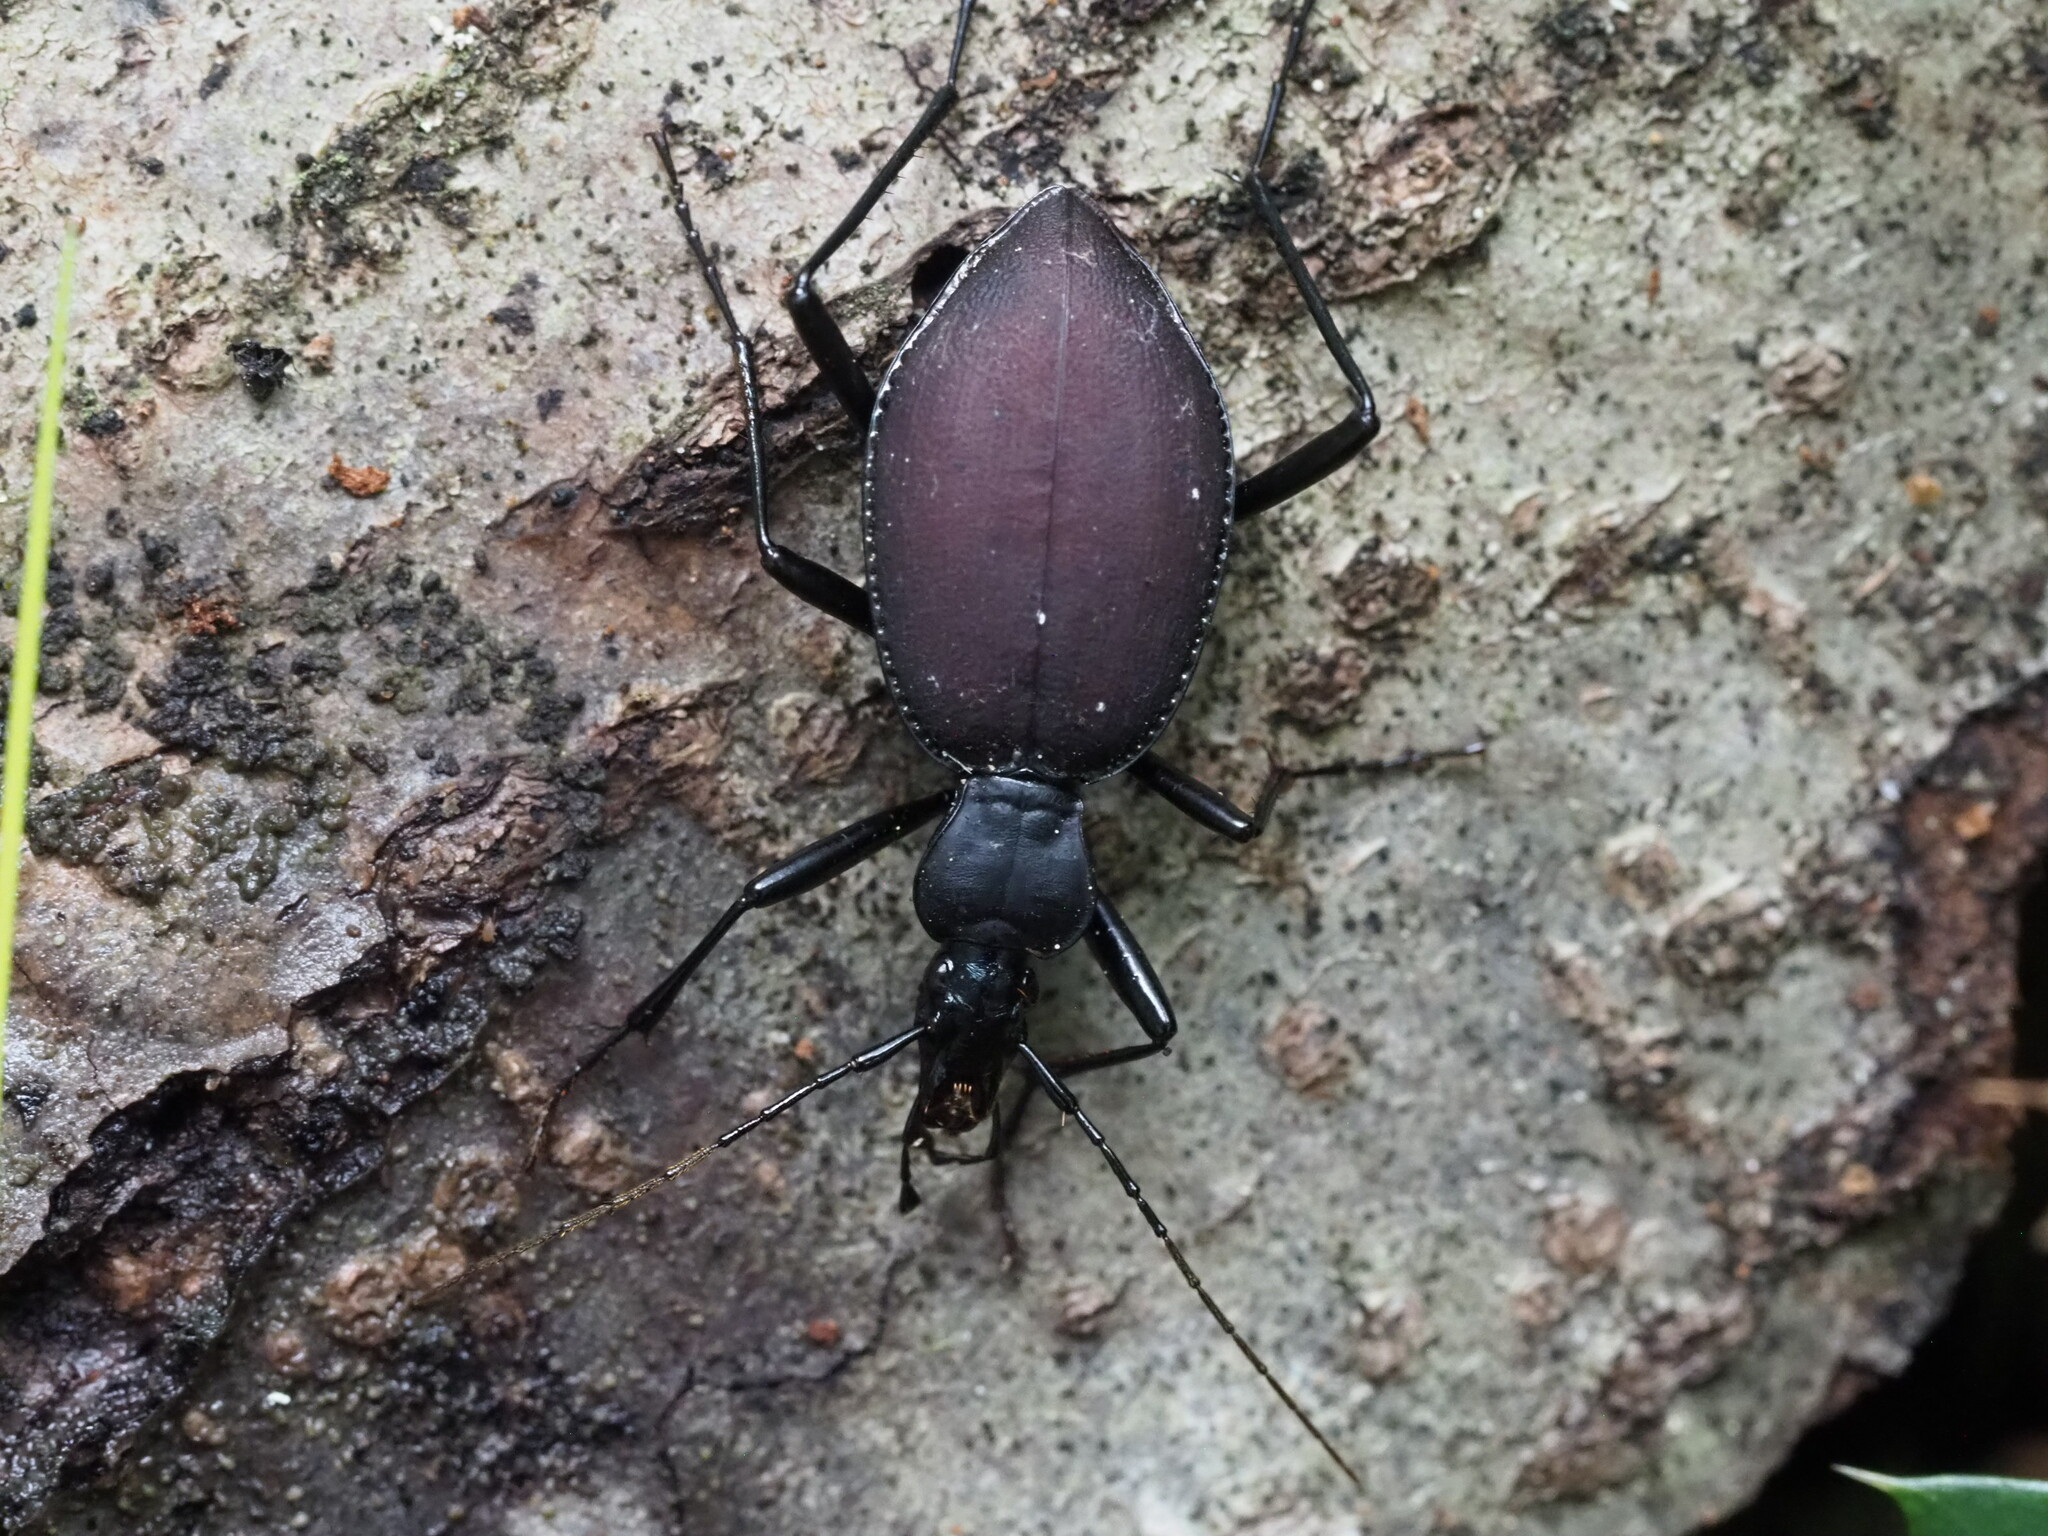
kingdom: Animalia
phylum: Arthropoda
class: Insecta
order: Coleoptera
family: Carabidae
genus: Scaphinotus
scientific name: Scaphinotus angusticollis
